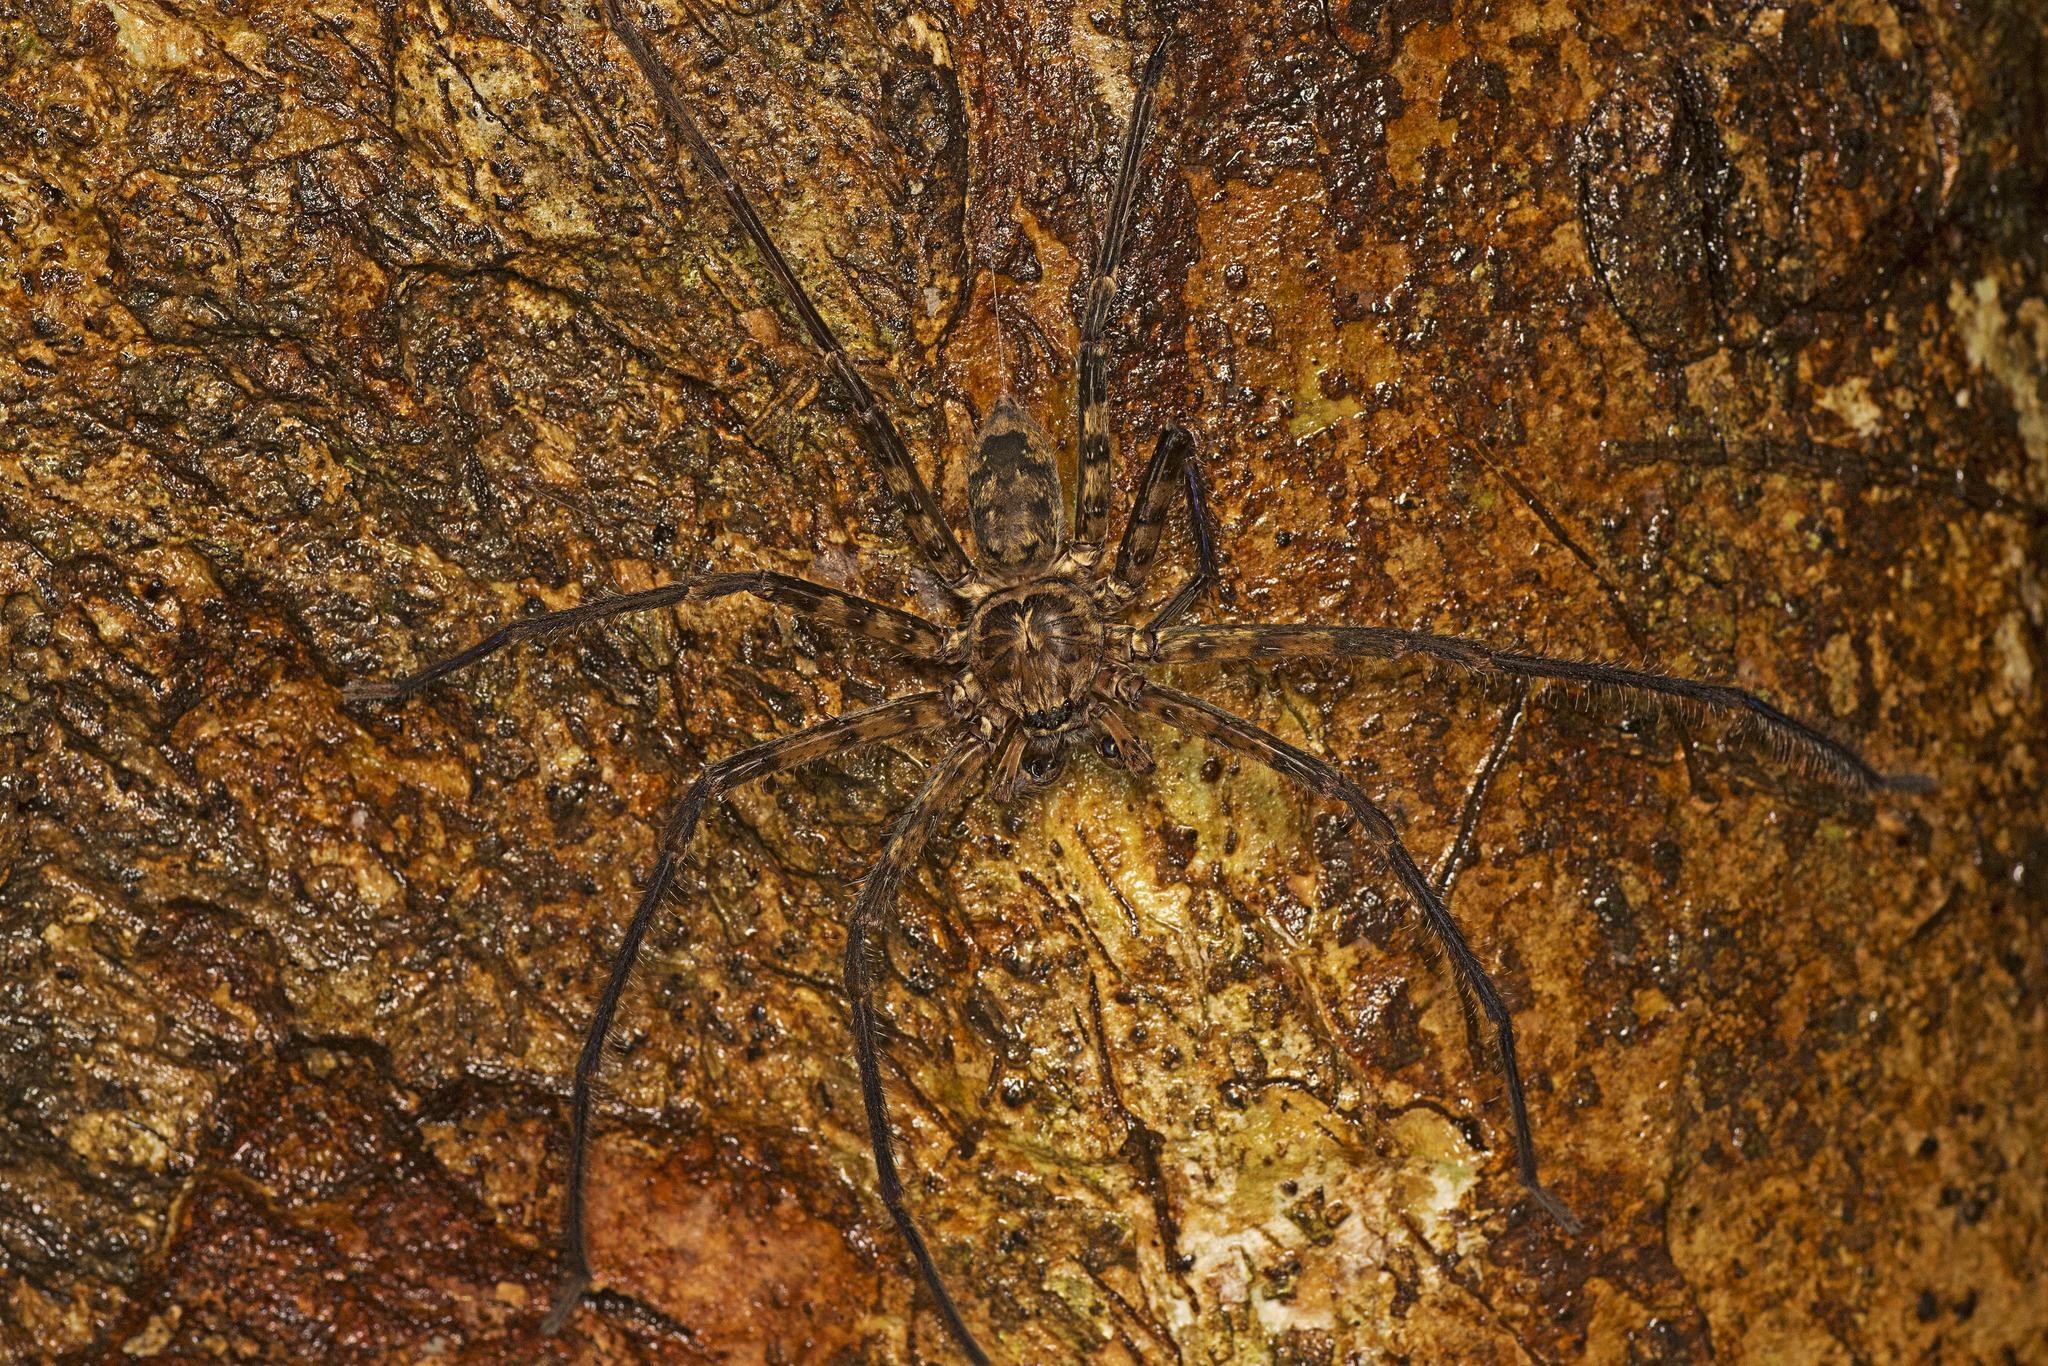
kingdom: Animalia
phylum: Arthropoda
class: Arachnida
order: Araneae
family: Sparassidae
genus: Heteropoda
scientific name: Heteropoda procera
